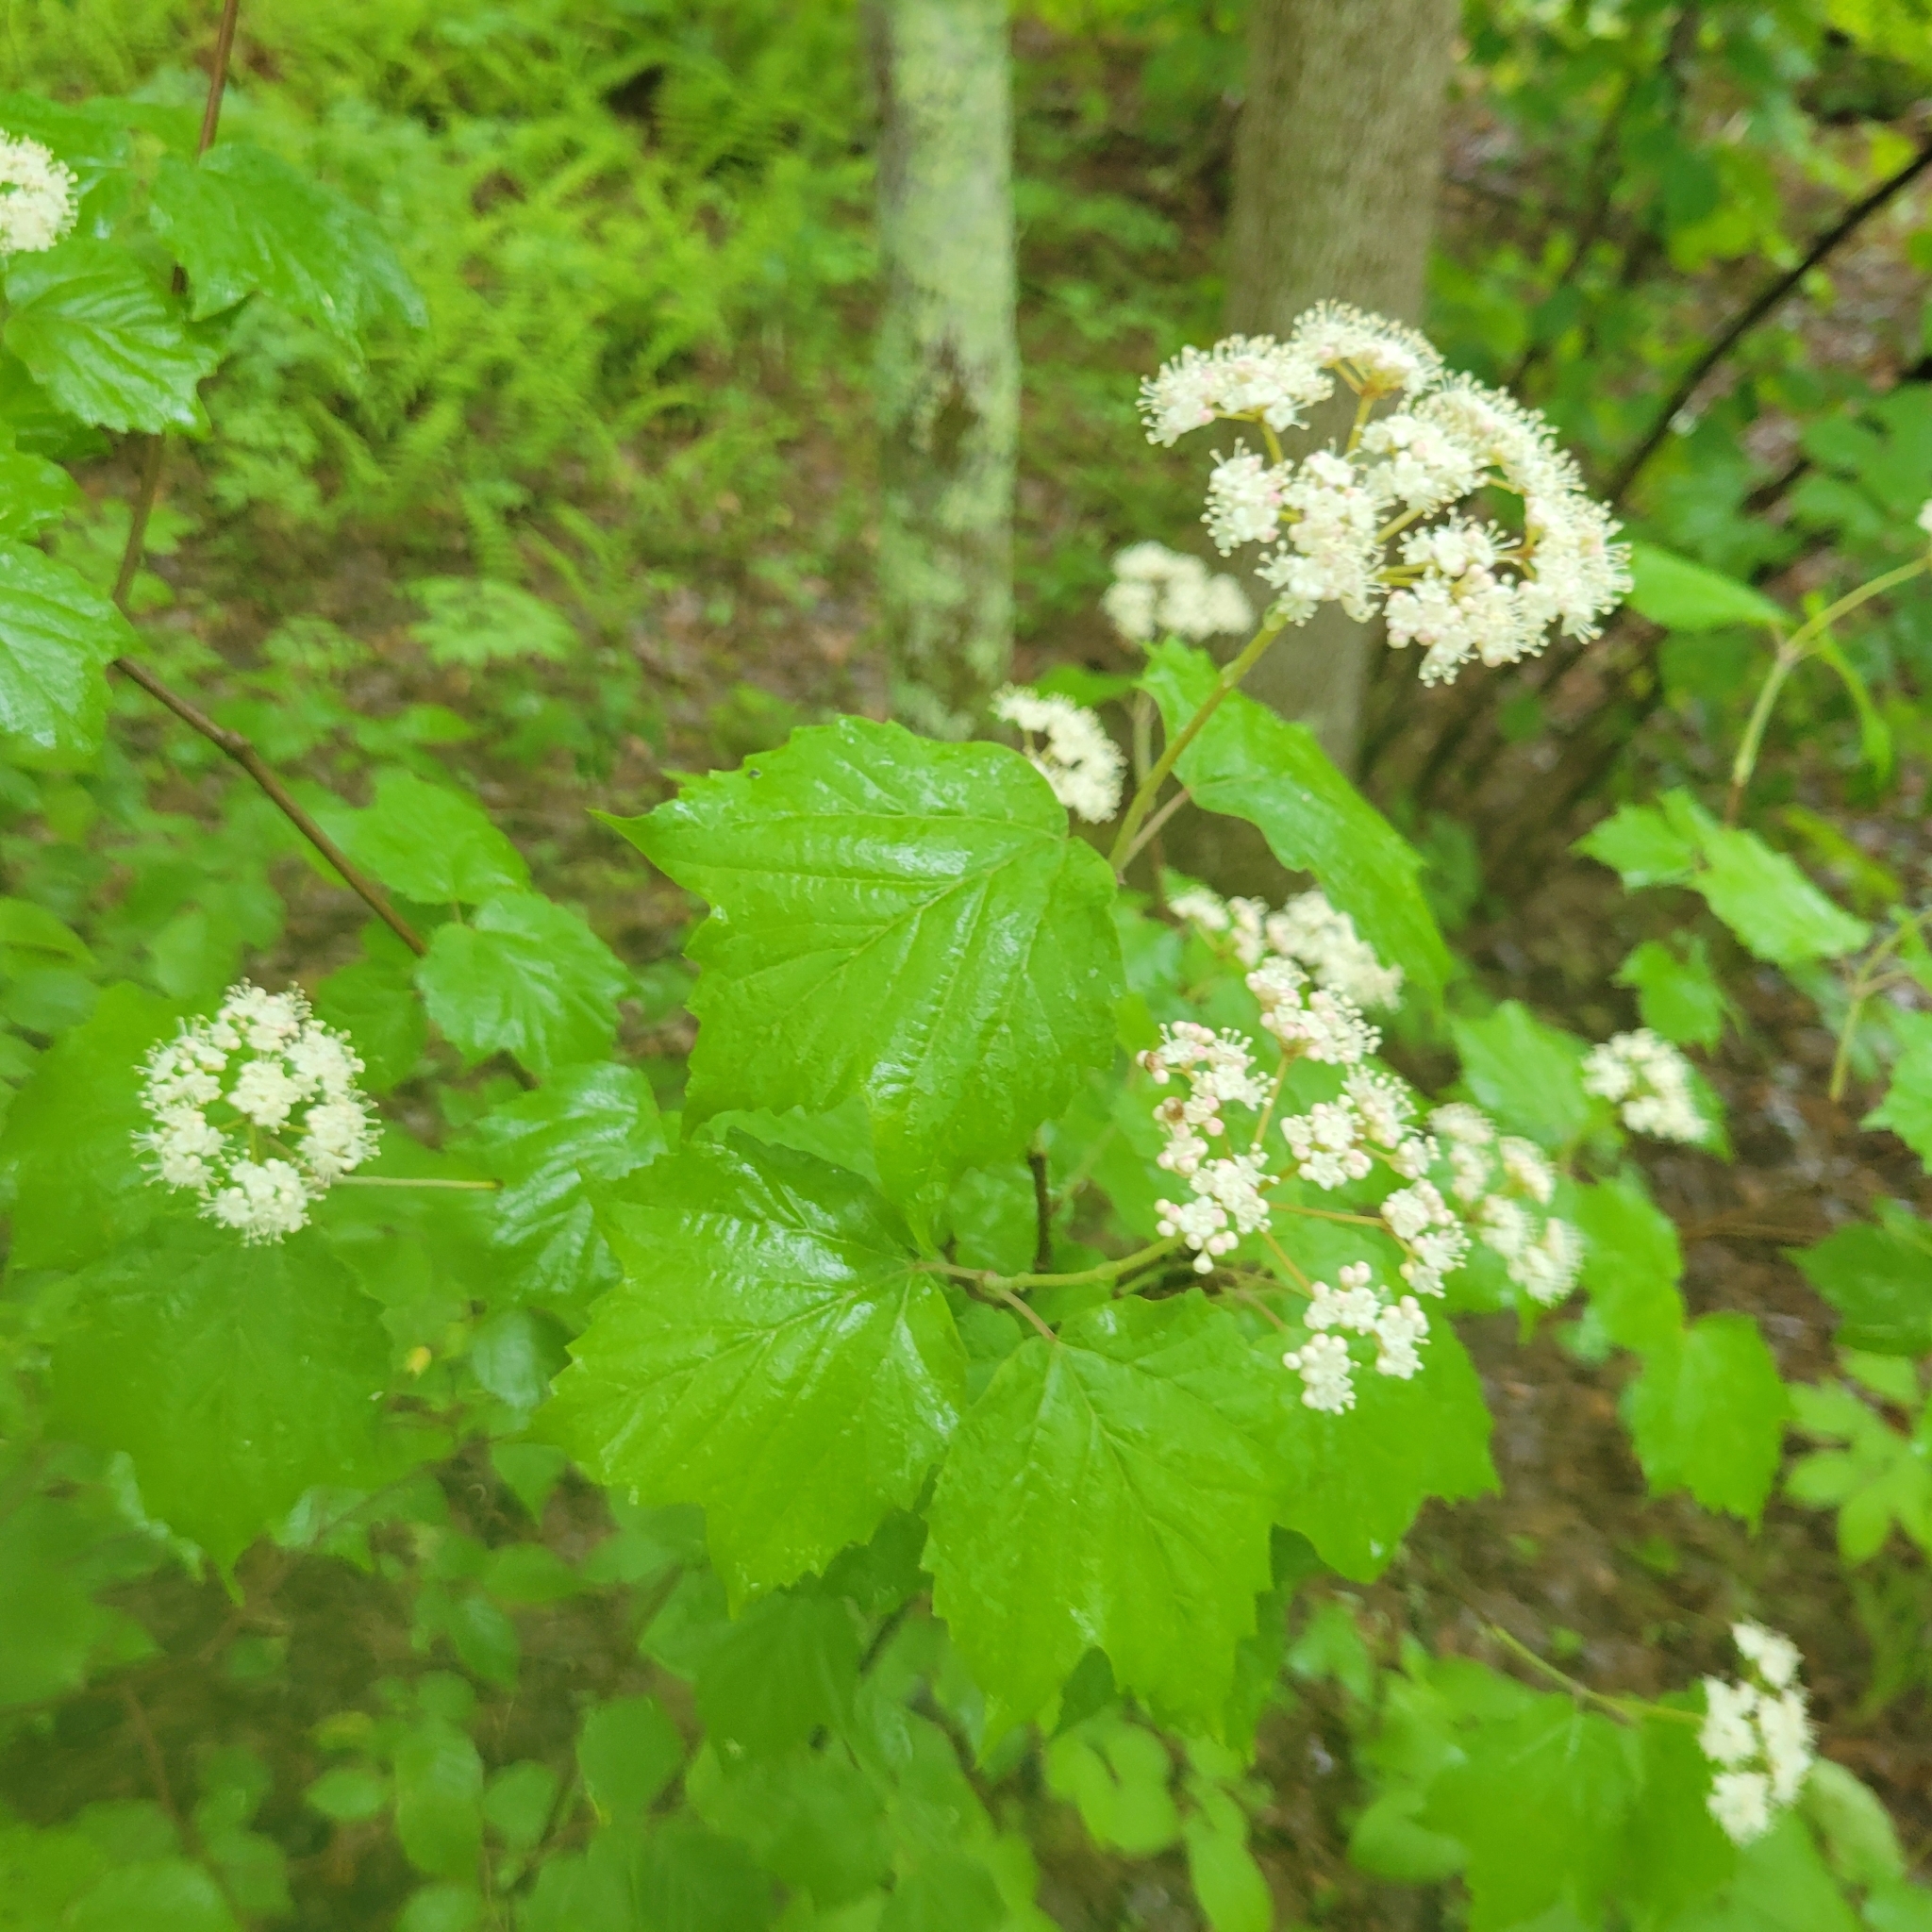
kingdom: Plantae
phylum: Tracheophyta
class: Magnoliopsida
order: Dipsacales
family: Viburnaceae
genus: Viburnum
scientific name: Viburnum acerifolium
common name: Dockmackie
